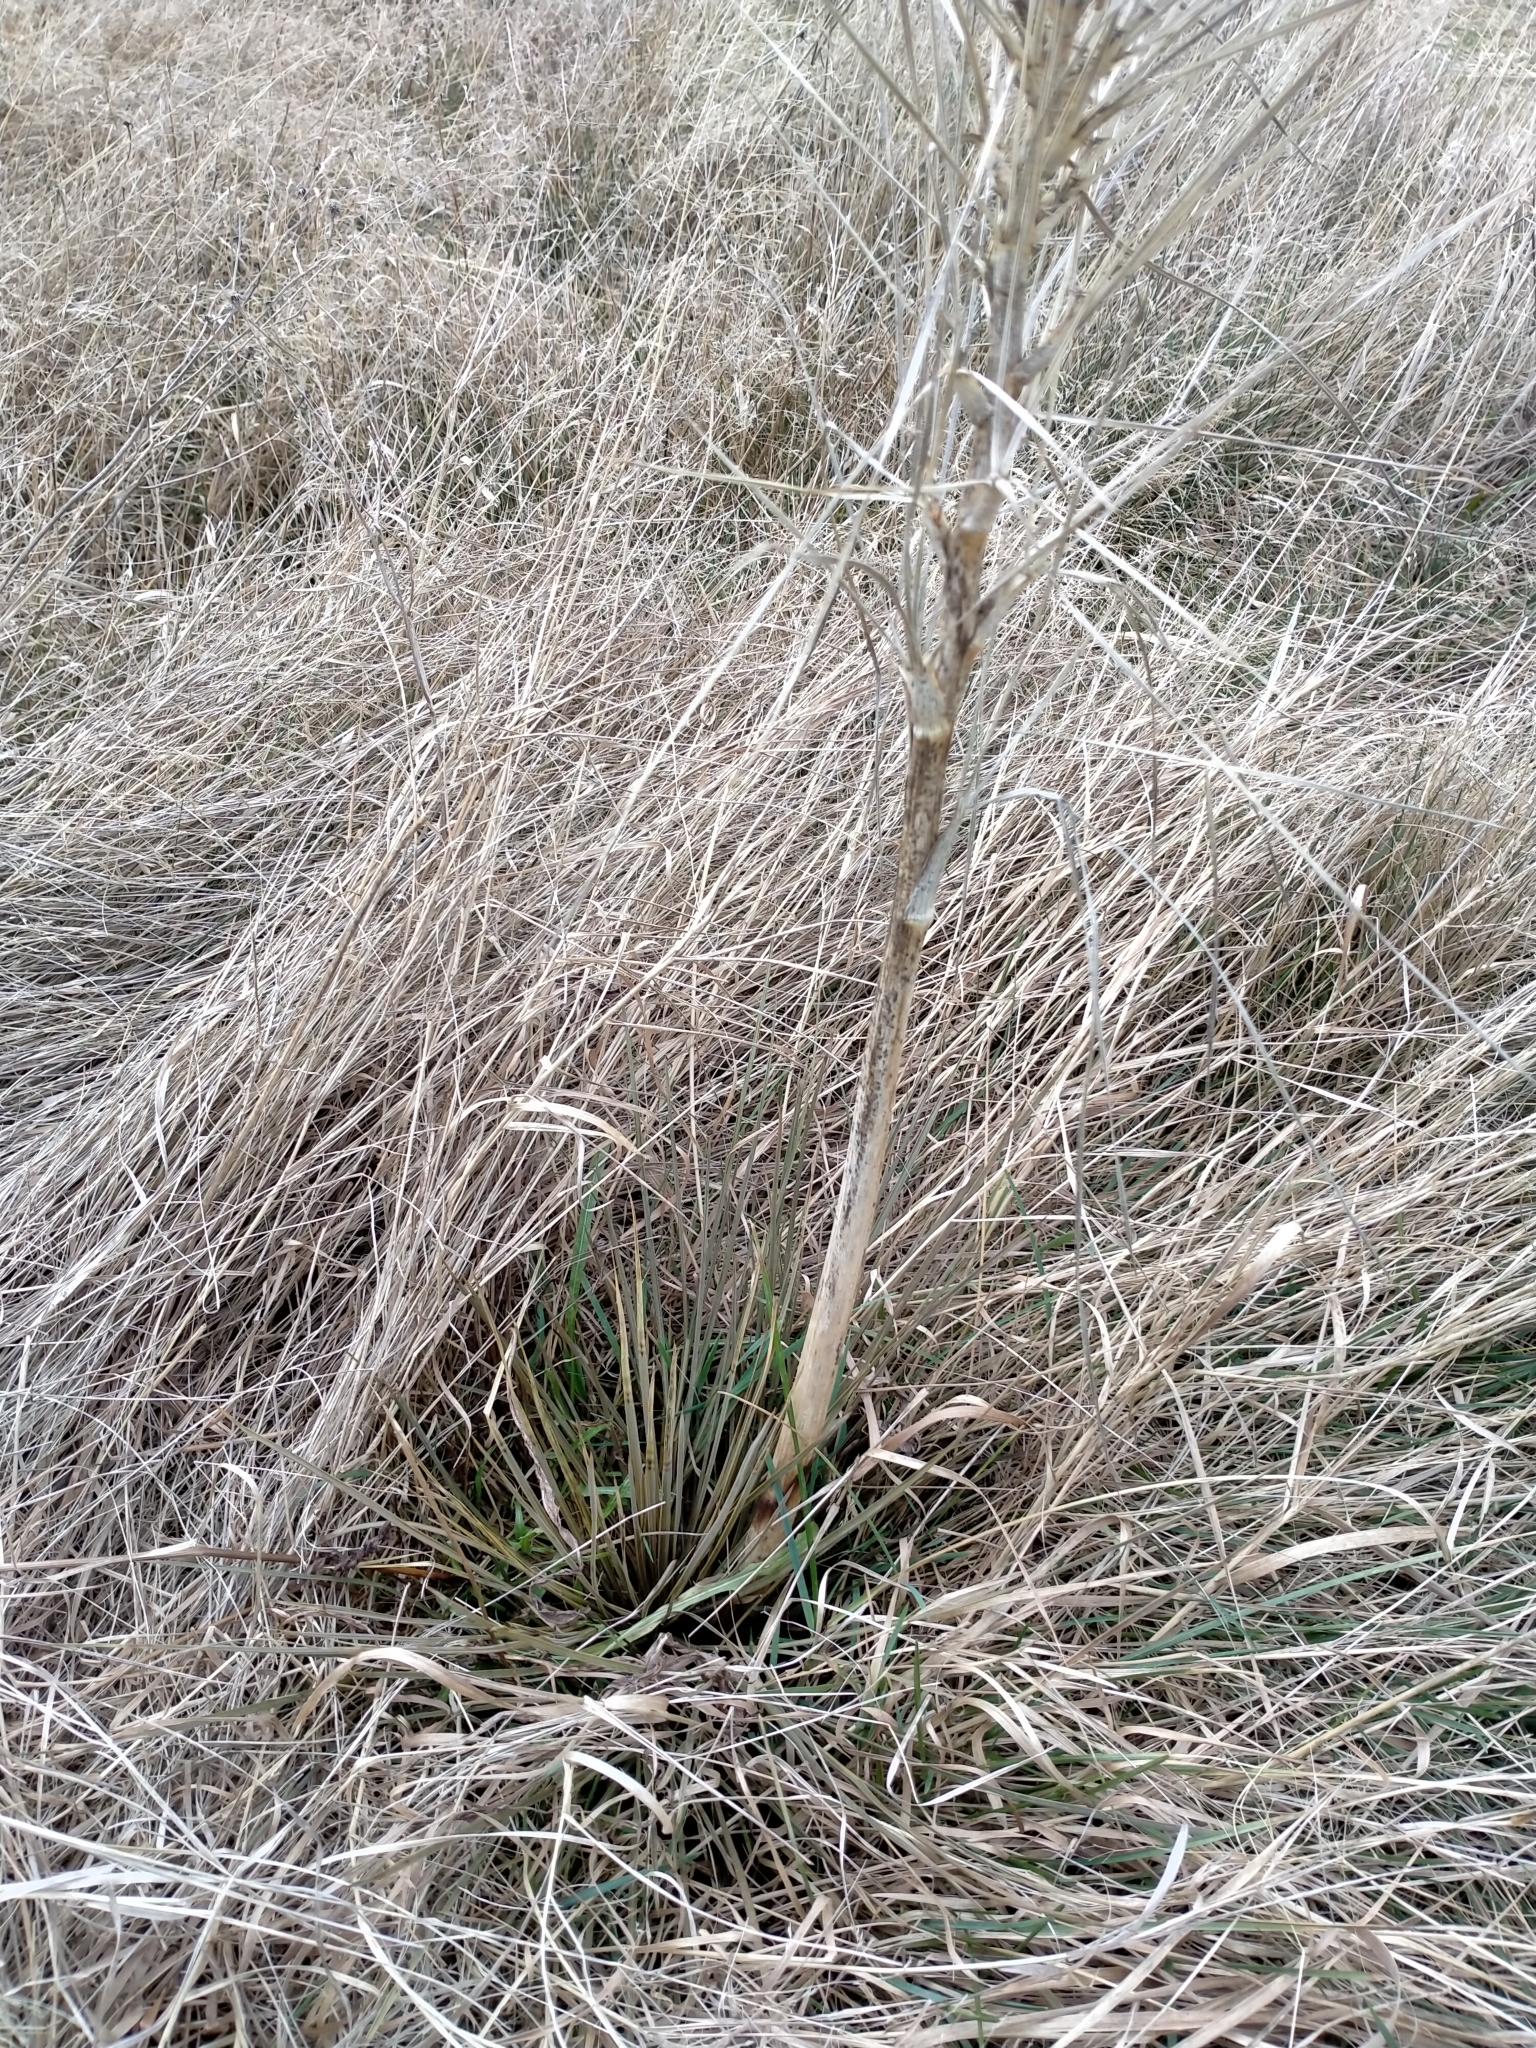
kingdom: Plantae
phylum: Tracheophyta
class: Magnoliopsida
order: Apiales
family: Apiaceae
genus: Aciphylla
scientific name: Aciphylla subflabellata
